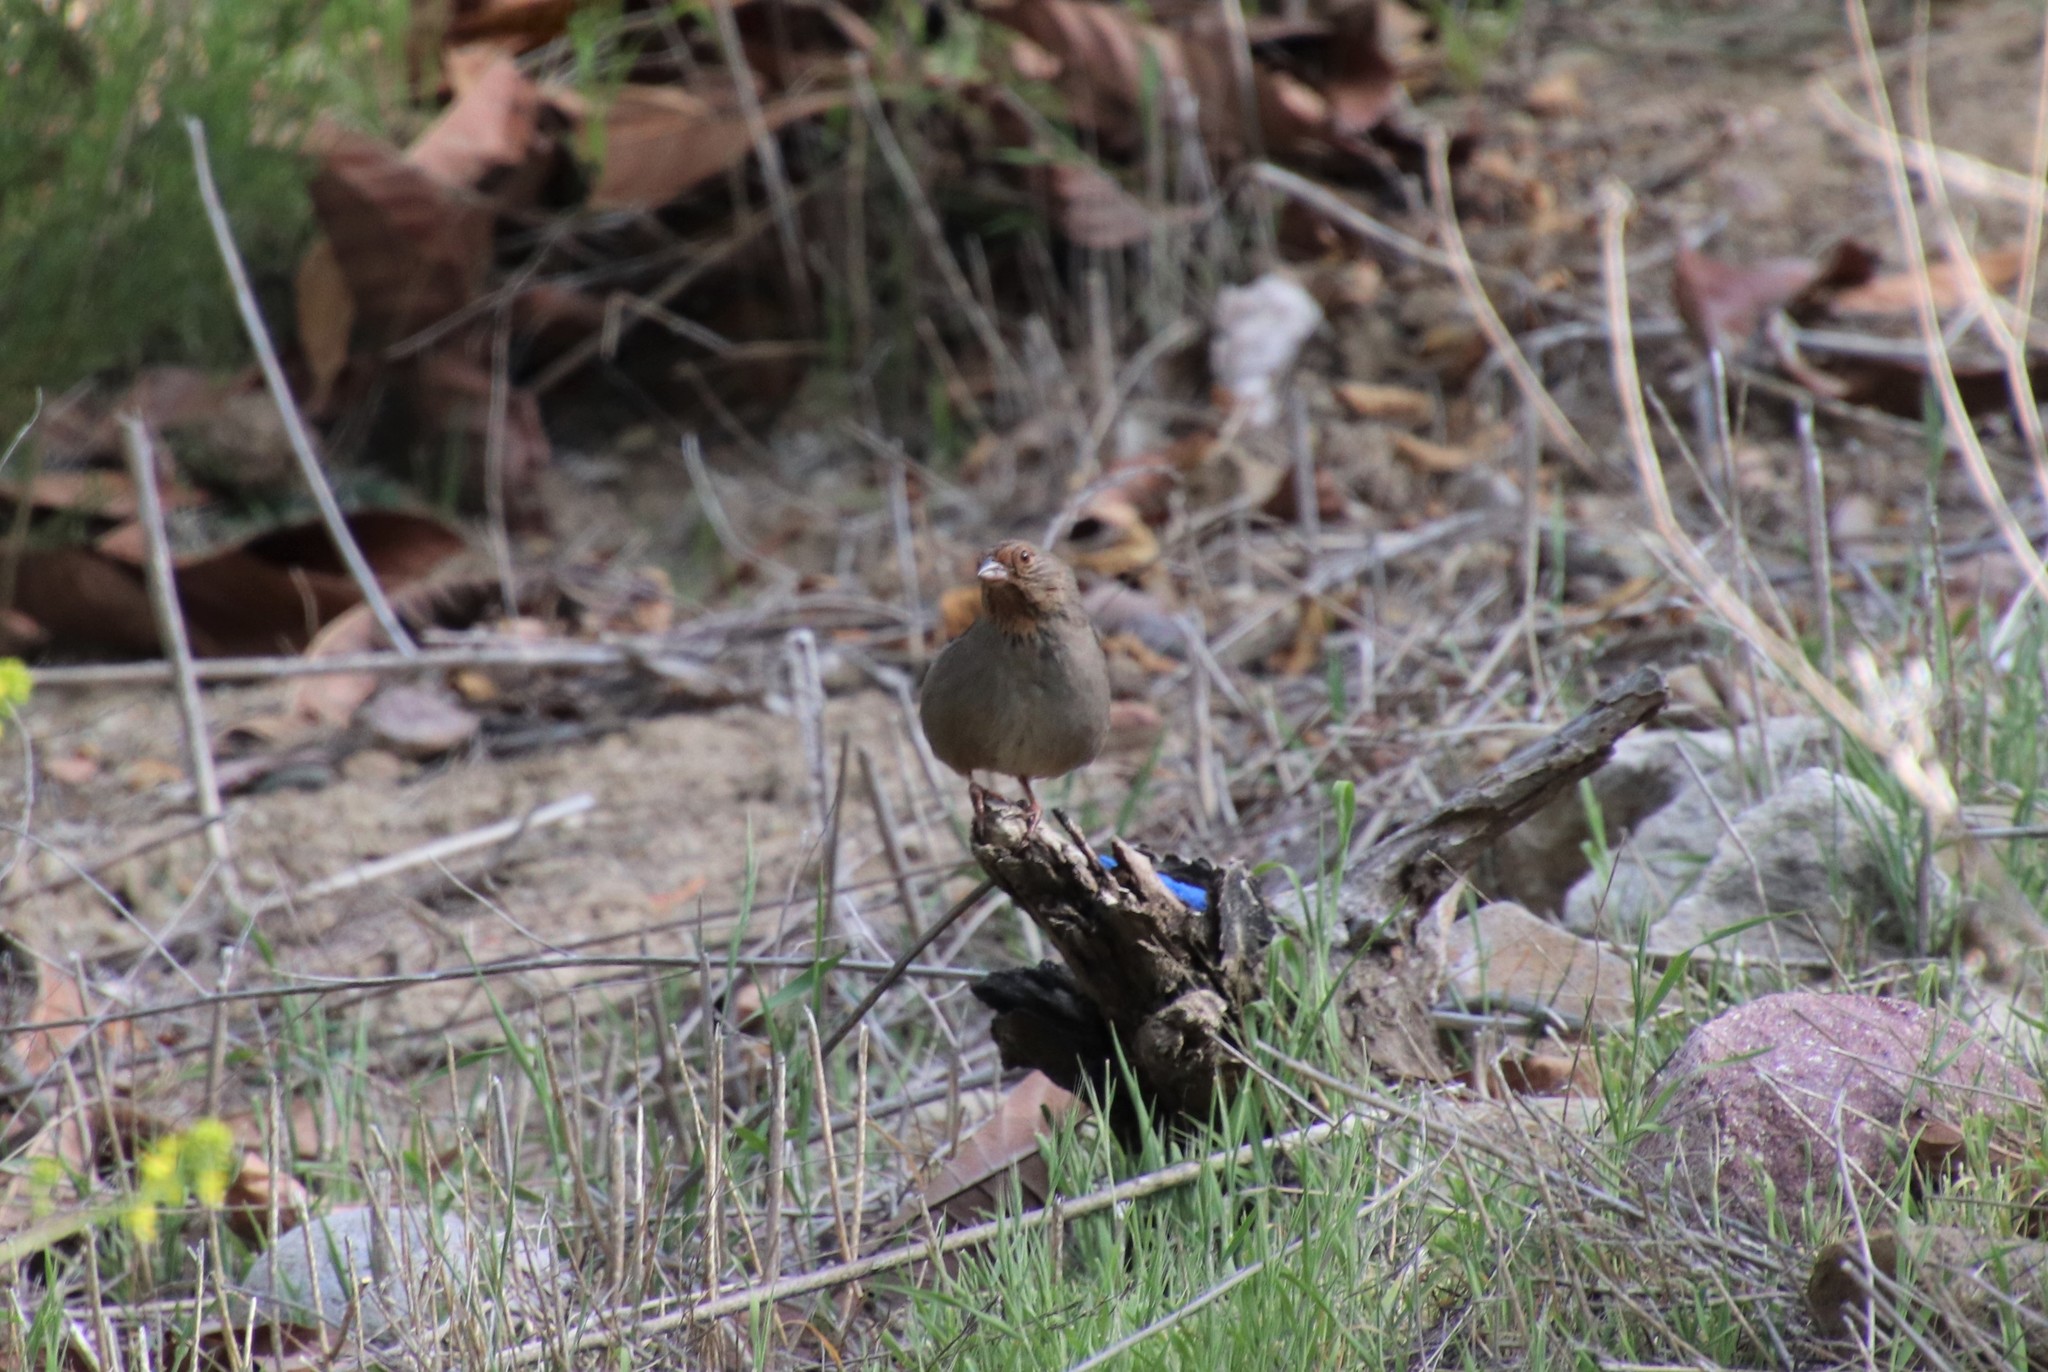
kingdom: Animalia
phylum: Chordata
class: Aves
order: Passeriformes
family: Passerellidae
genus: Melozone
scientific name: Melozone crissalis
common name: California towhee
